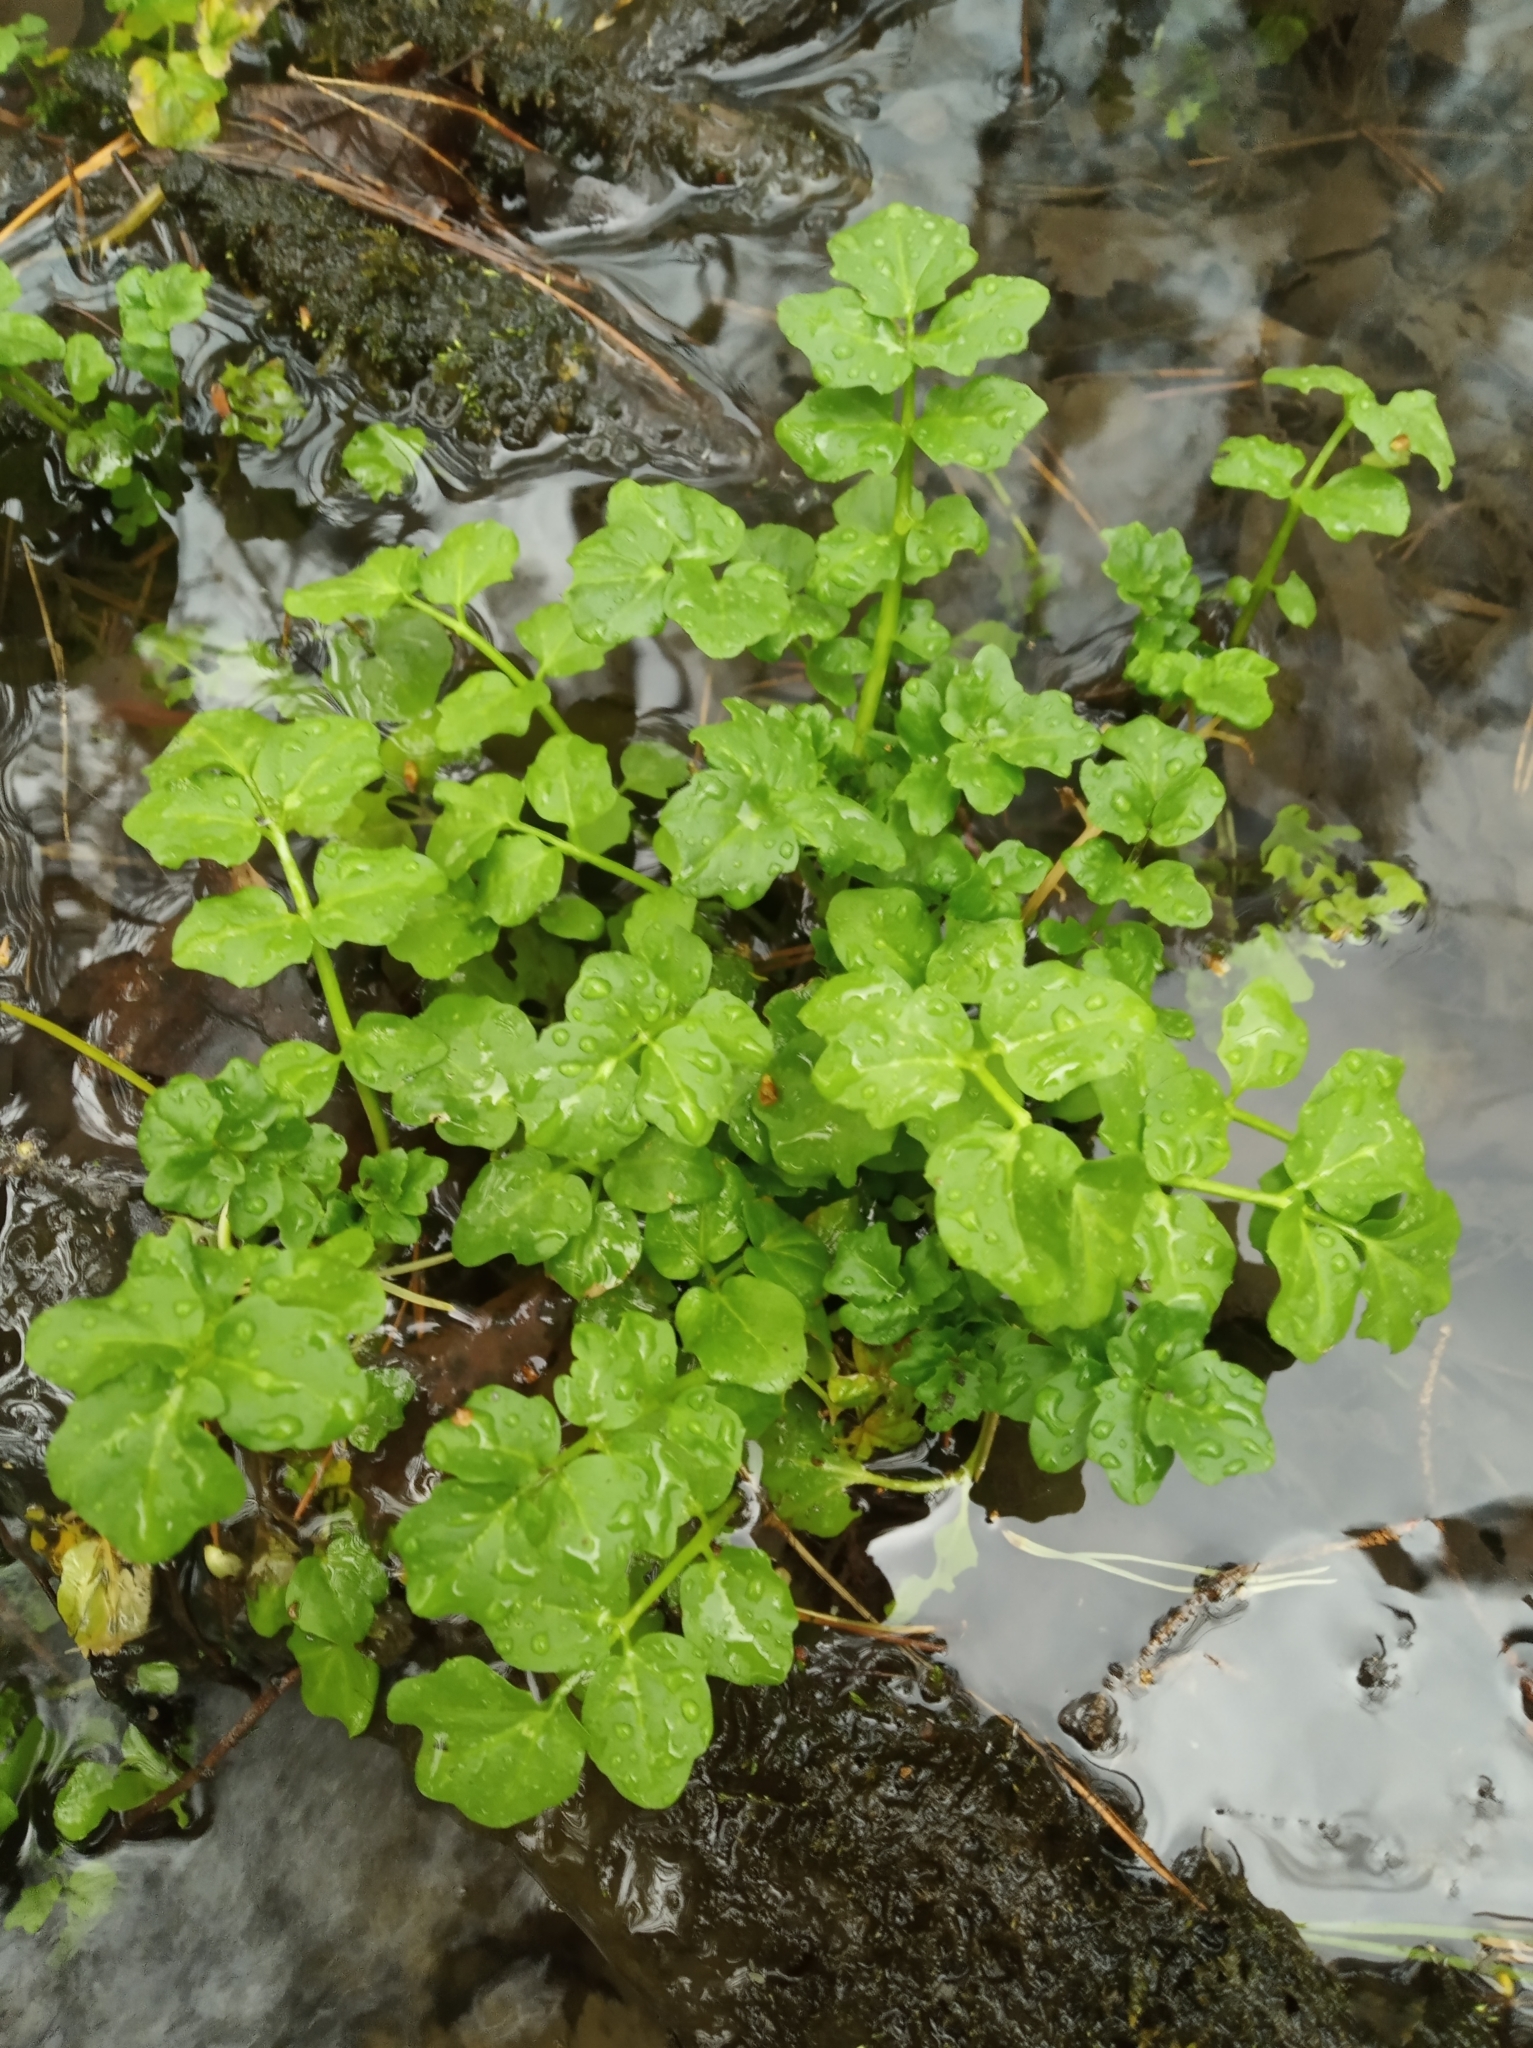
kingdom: Plantae
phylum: Tracheophyta
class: Magnoliopsida
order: Brassicales
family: Brassicaceae
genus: Cardamine
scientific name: Cardamine amara
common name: Large bitter-cress
